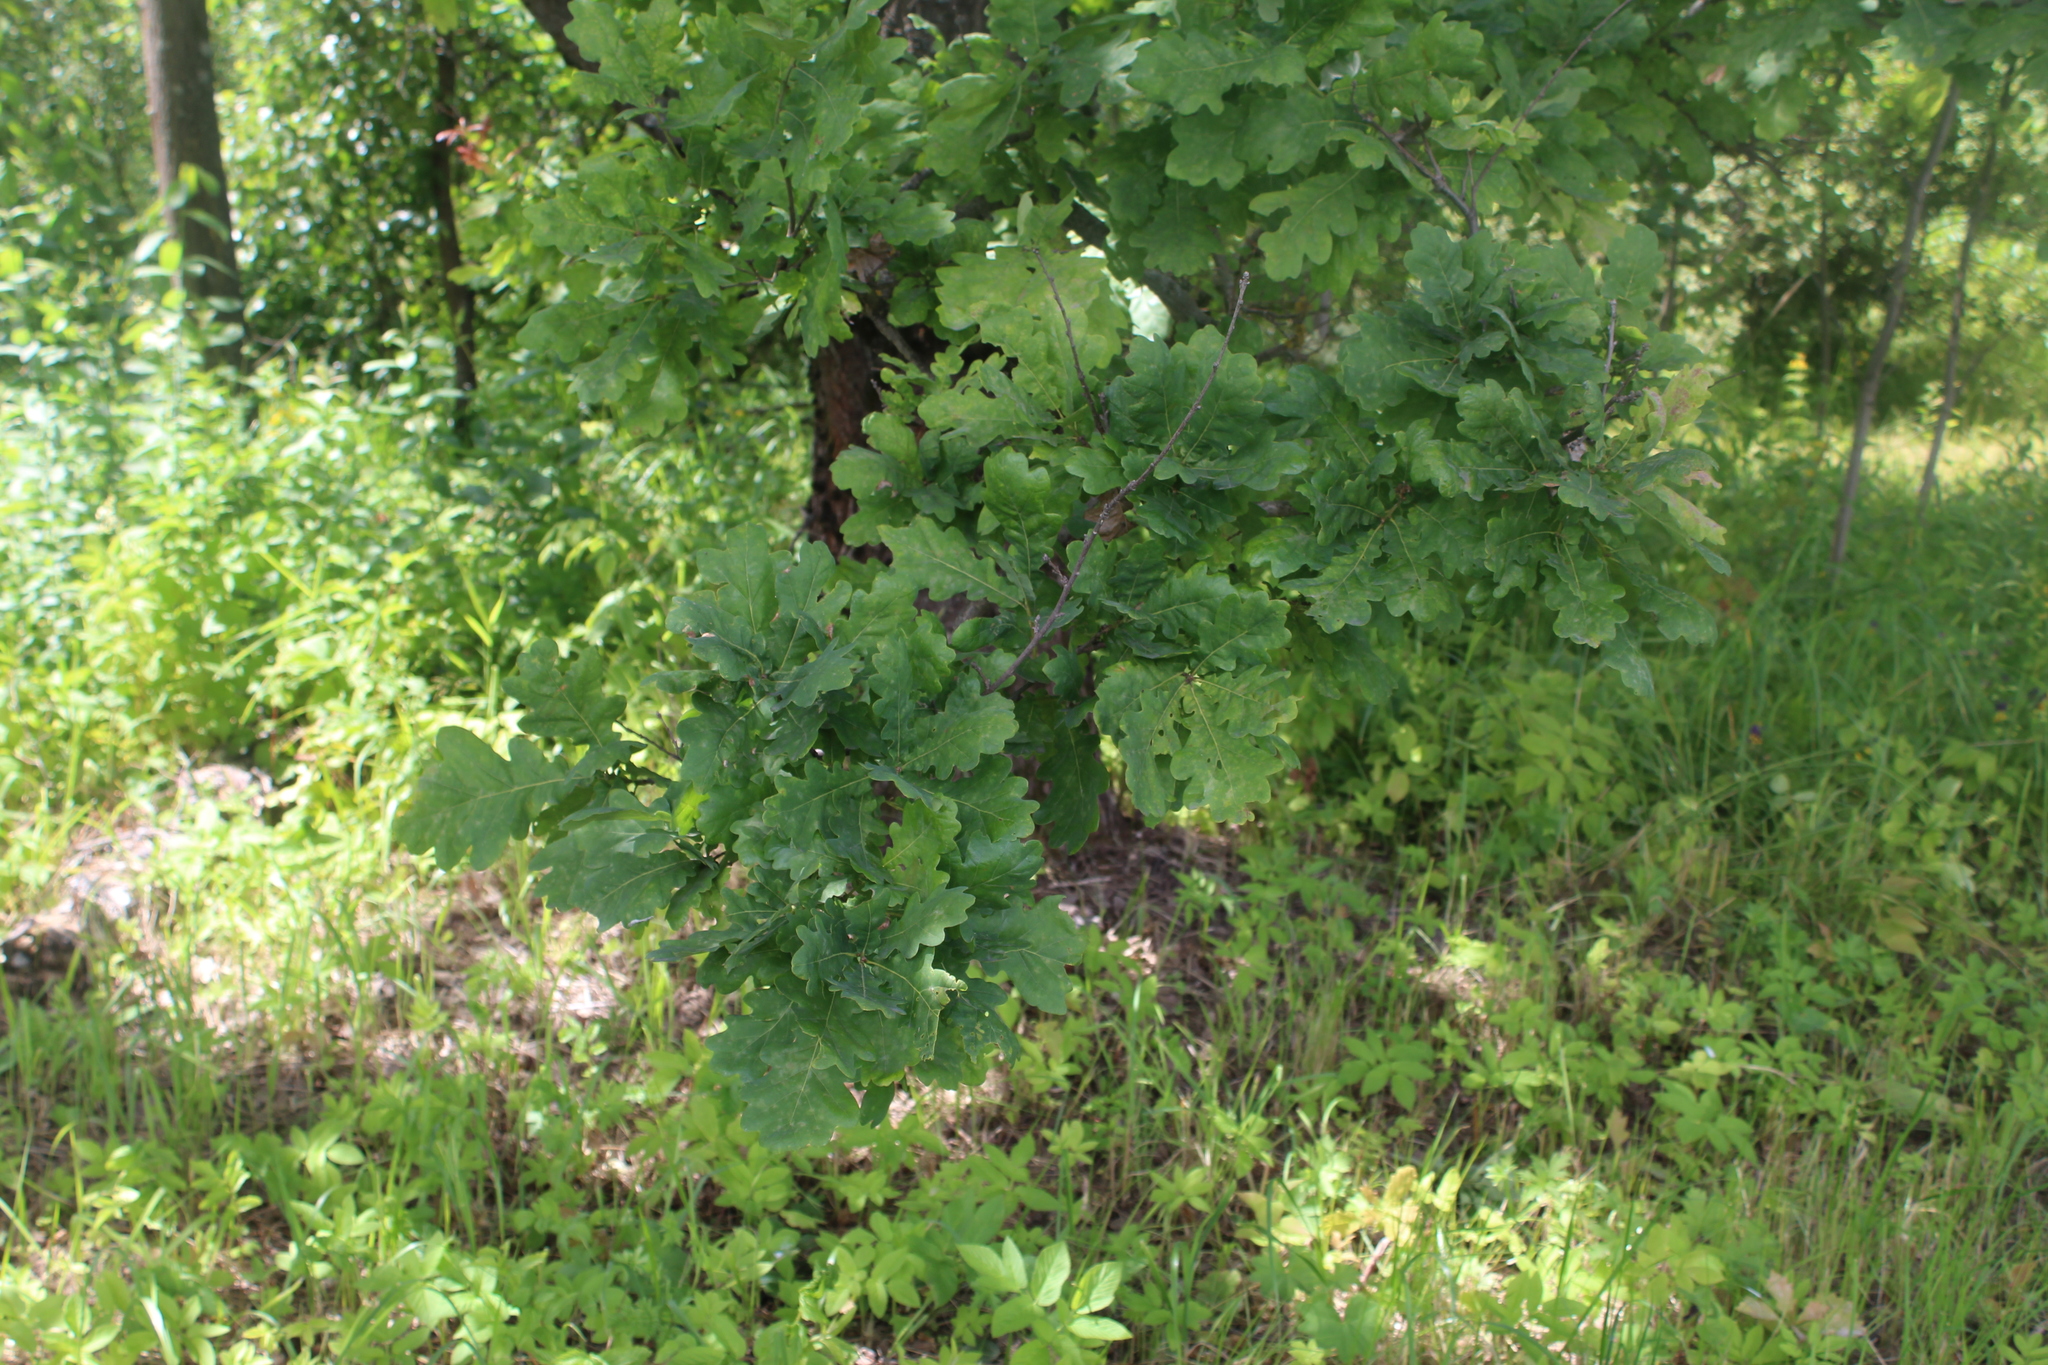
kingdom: Plantae
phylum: Tracheophyta
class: Magnoliopsida
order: Fagales
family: Fagaceae
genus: Quercus
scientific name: Quercus robur
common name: Pedunculate oak
